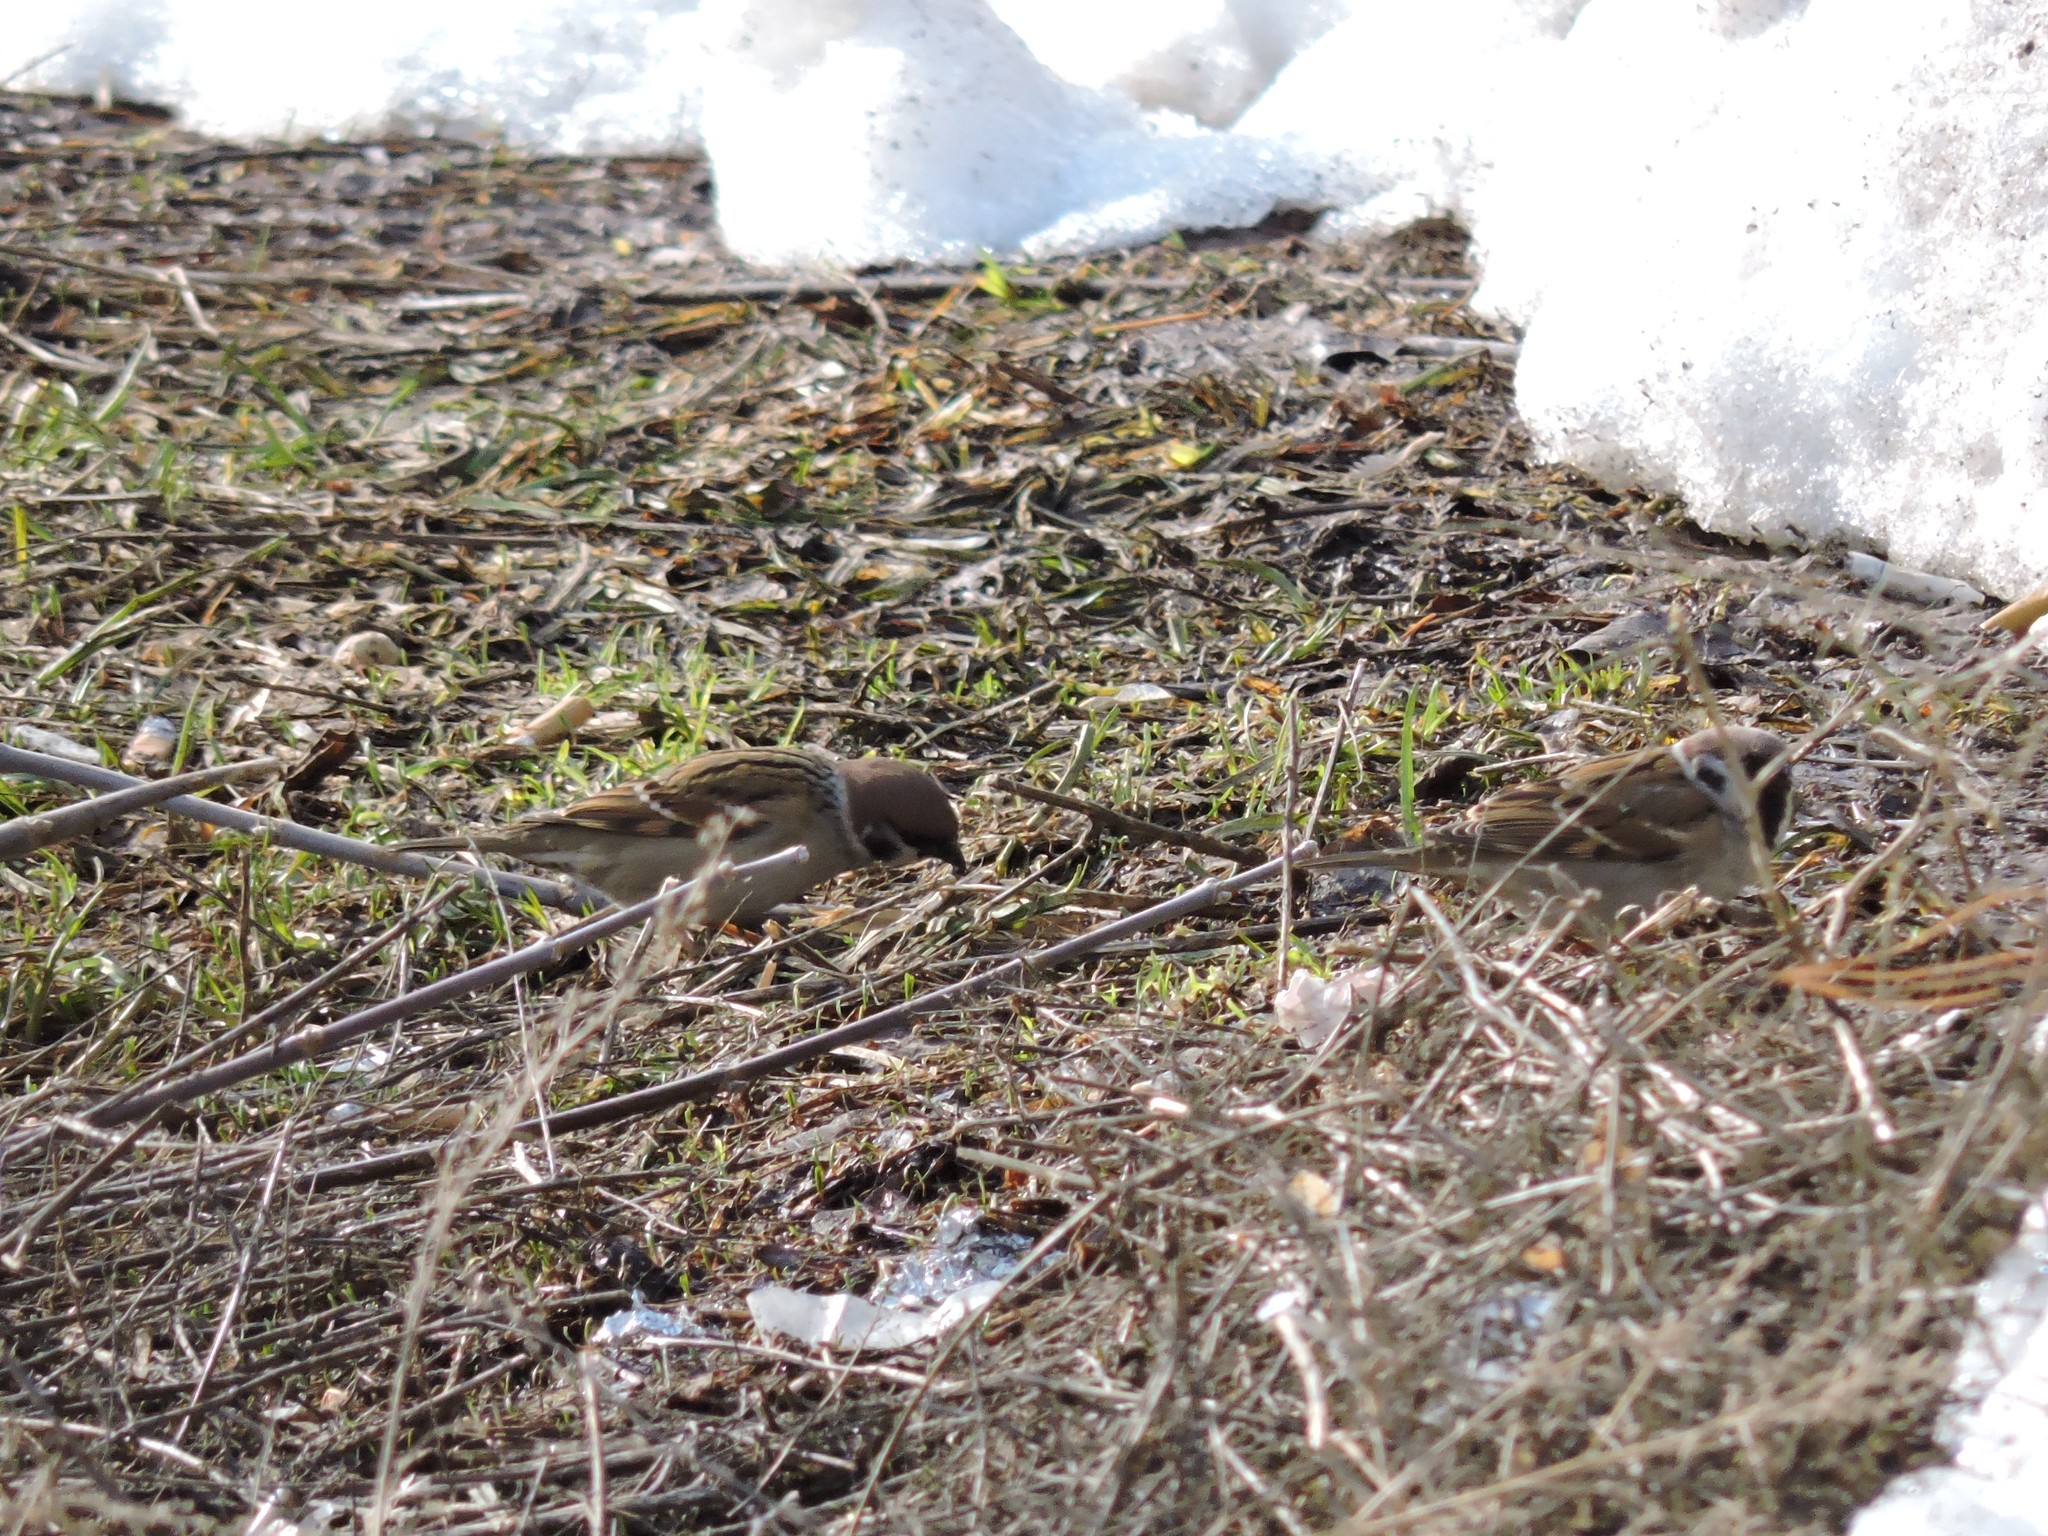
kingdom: Animalia
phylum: Chordata
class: Aves
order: Passeriformes
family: Passeridae
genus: Passer
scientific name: Passer montanus
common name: Eurasian tree sparrow
